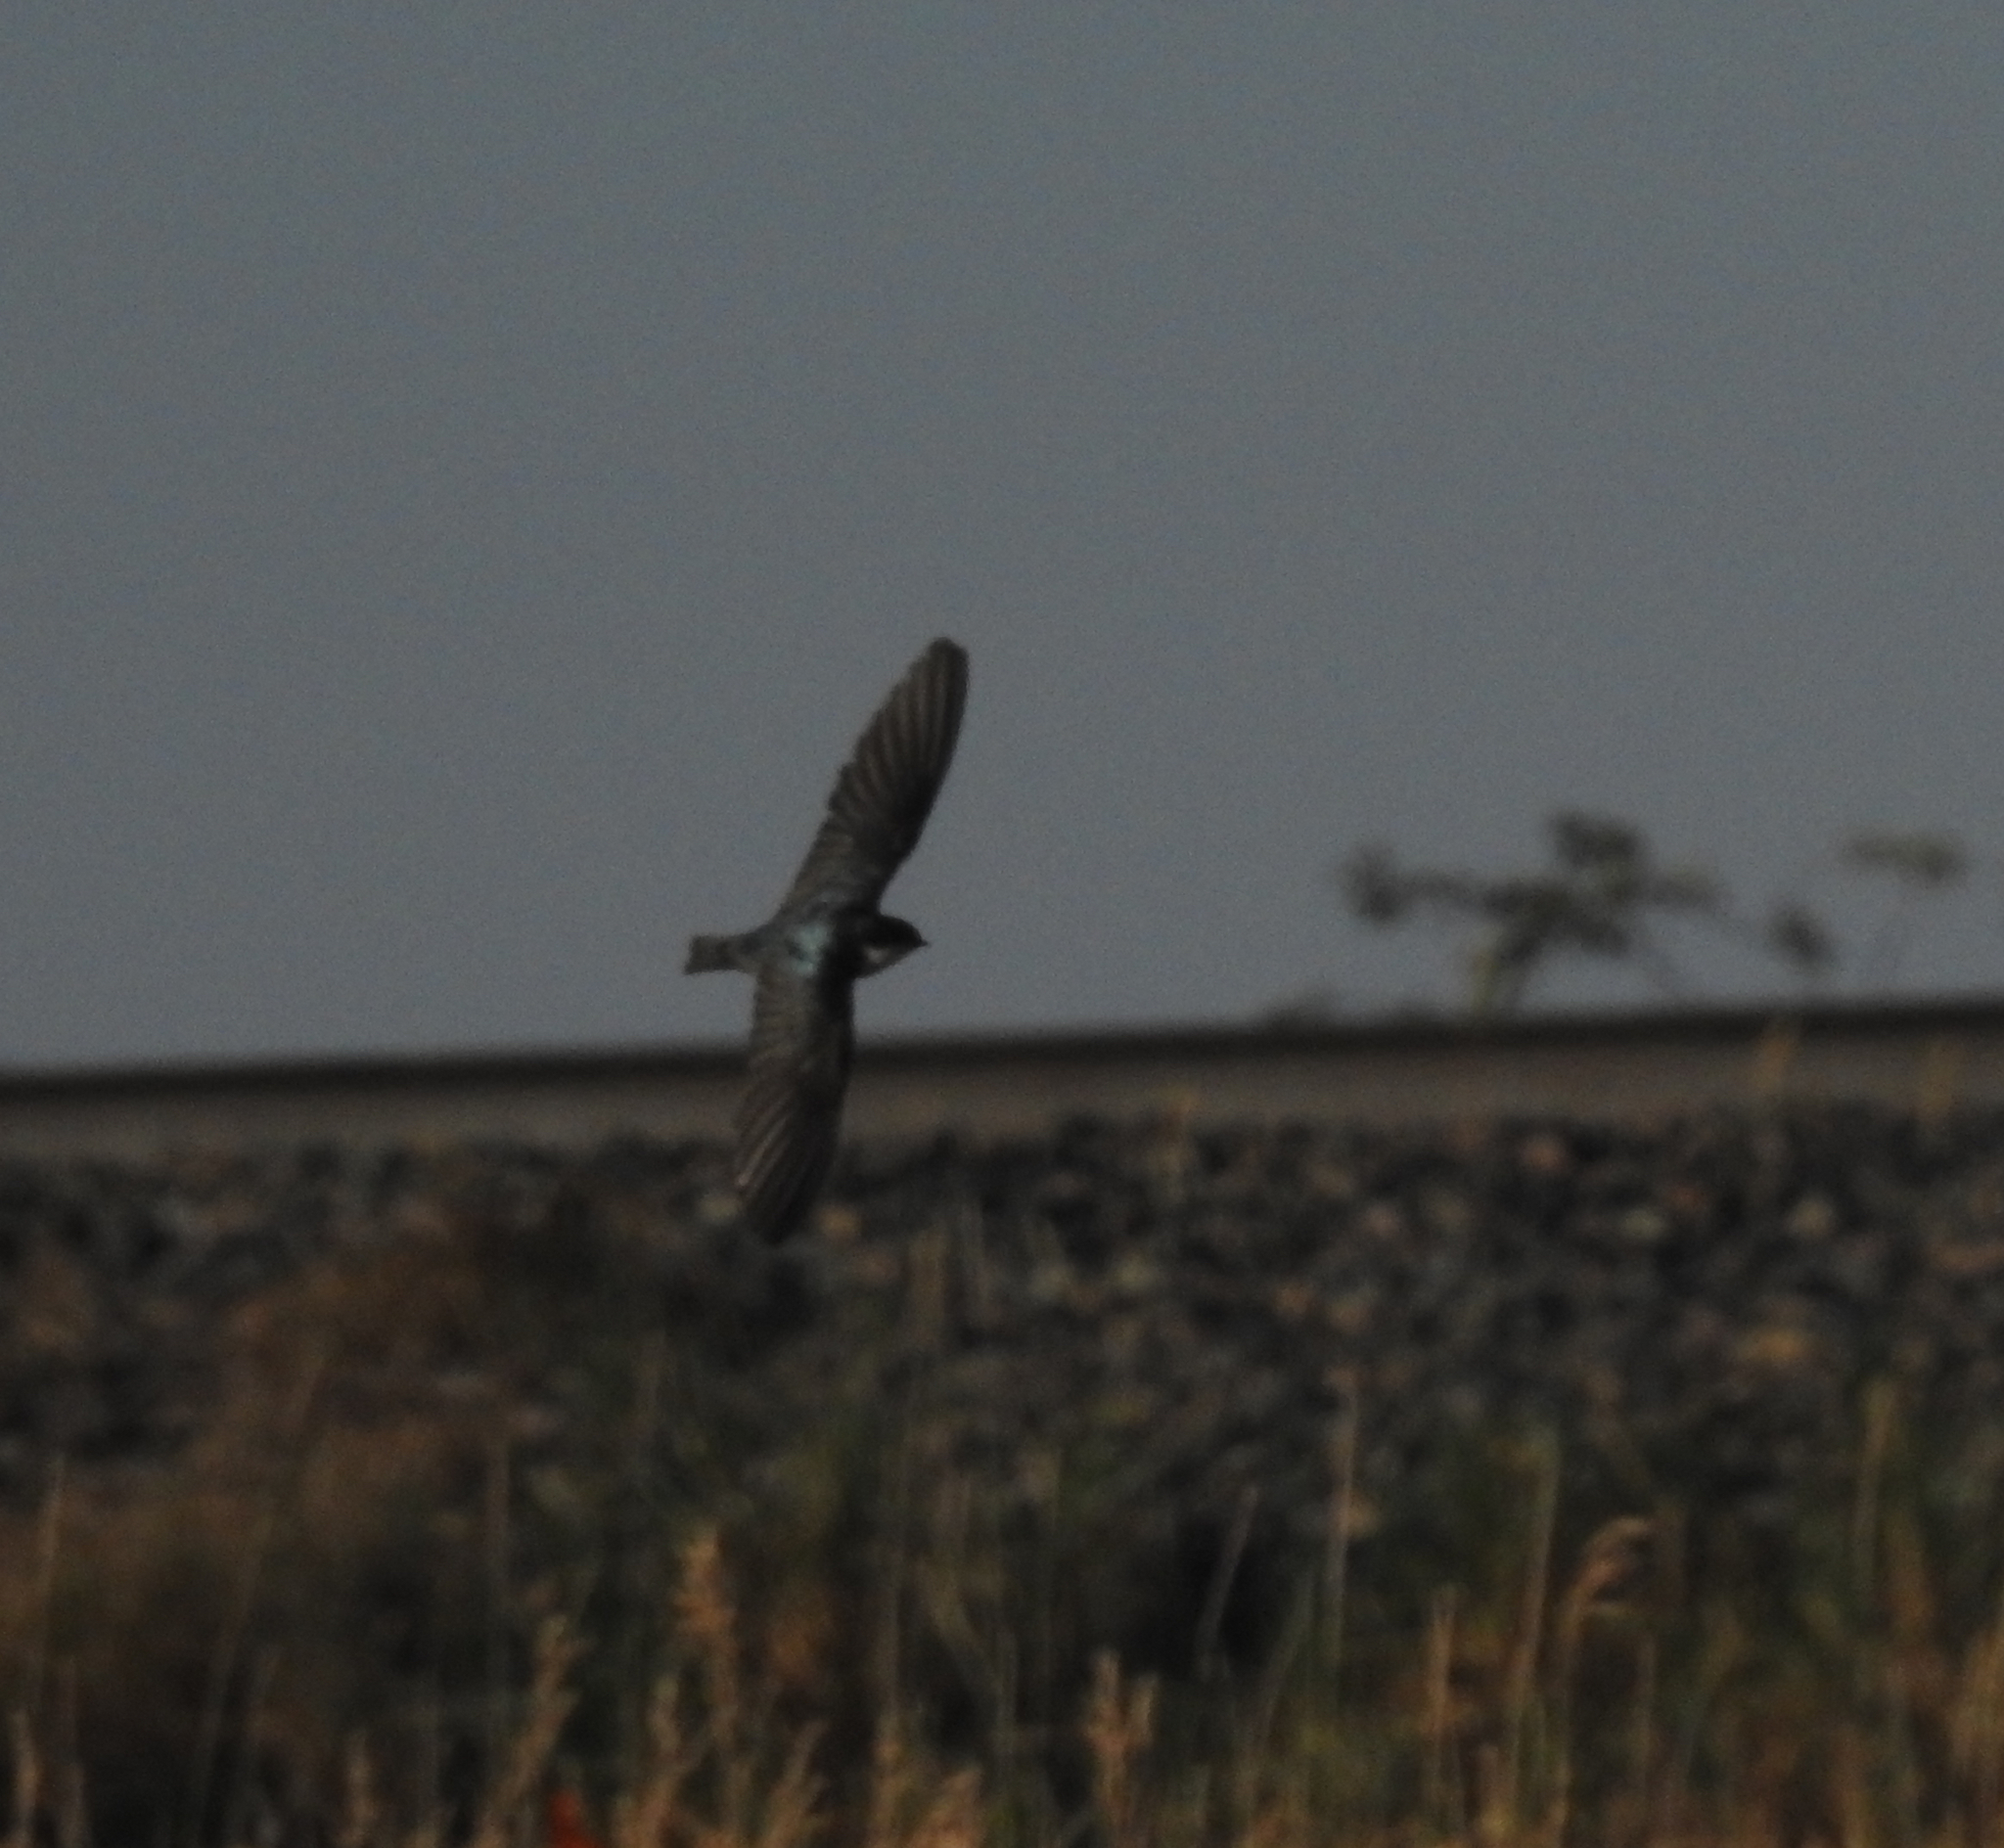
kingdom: Animalia
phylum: Chordata
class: Aves
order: Passeriformes
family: Hirundinidae
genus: Tachycineta
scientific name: Tachycineta bicolor
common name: Tree swallow
